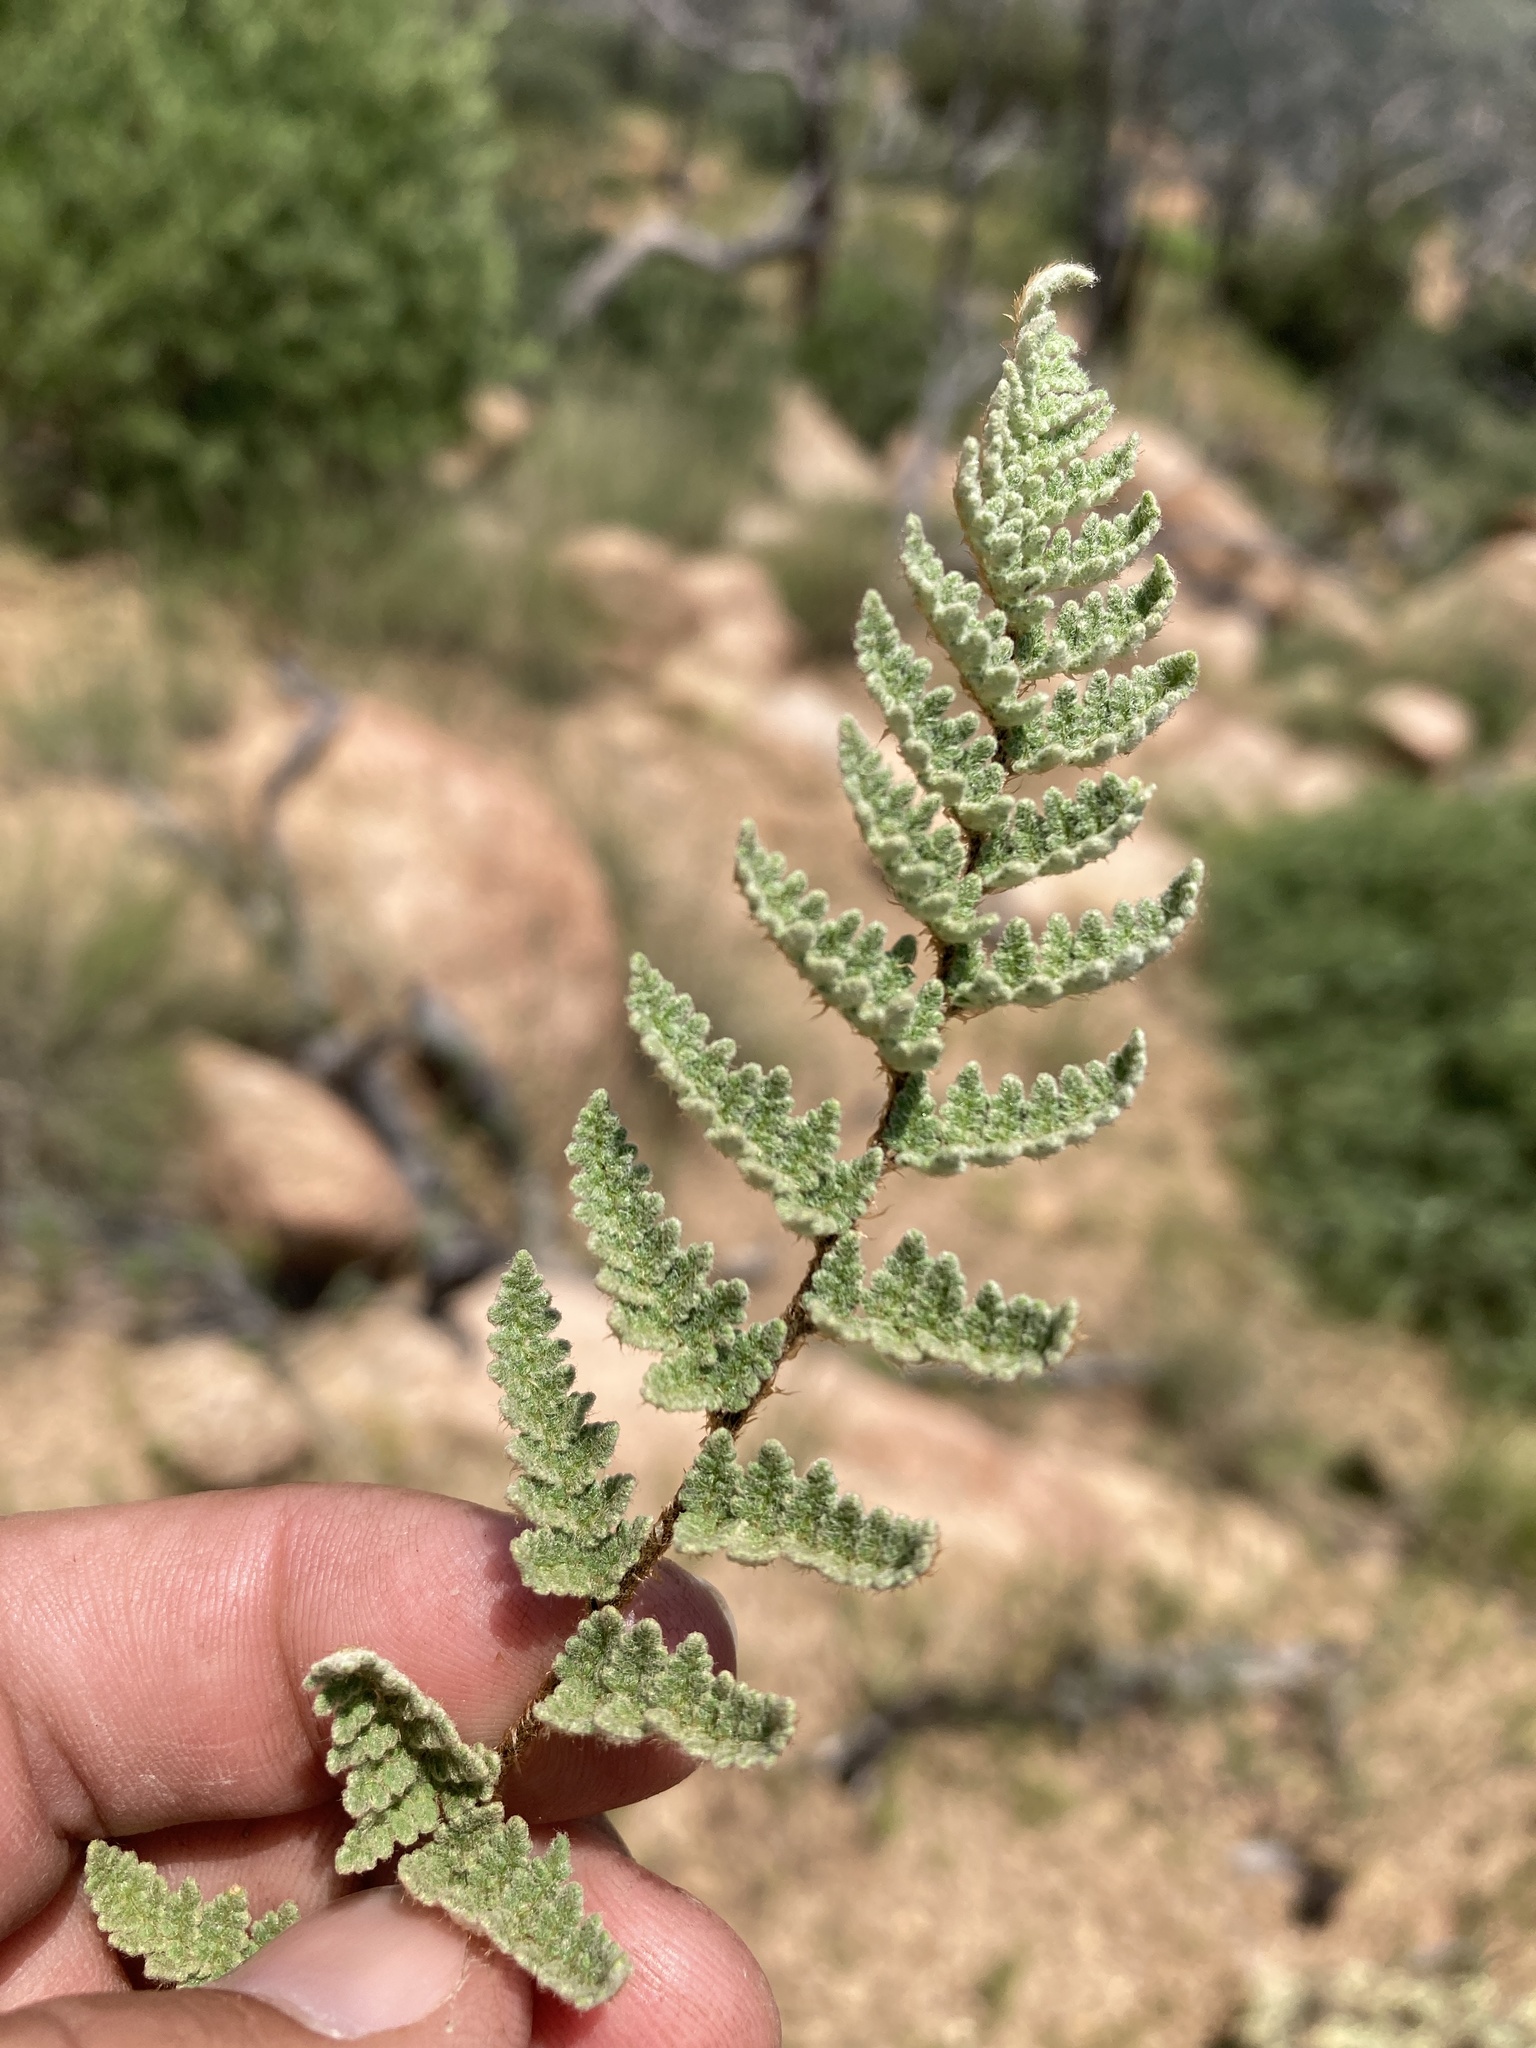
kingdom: Plantae
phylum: Tracheophyta
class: Polypodiopsida
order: Polypodiales
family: Pteridaceae
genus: Myriopteris
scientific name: Myriopteris rufa
